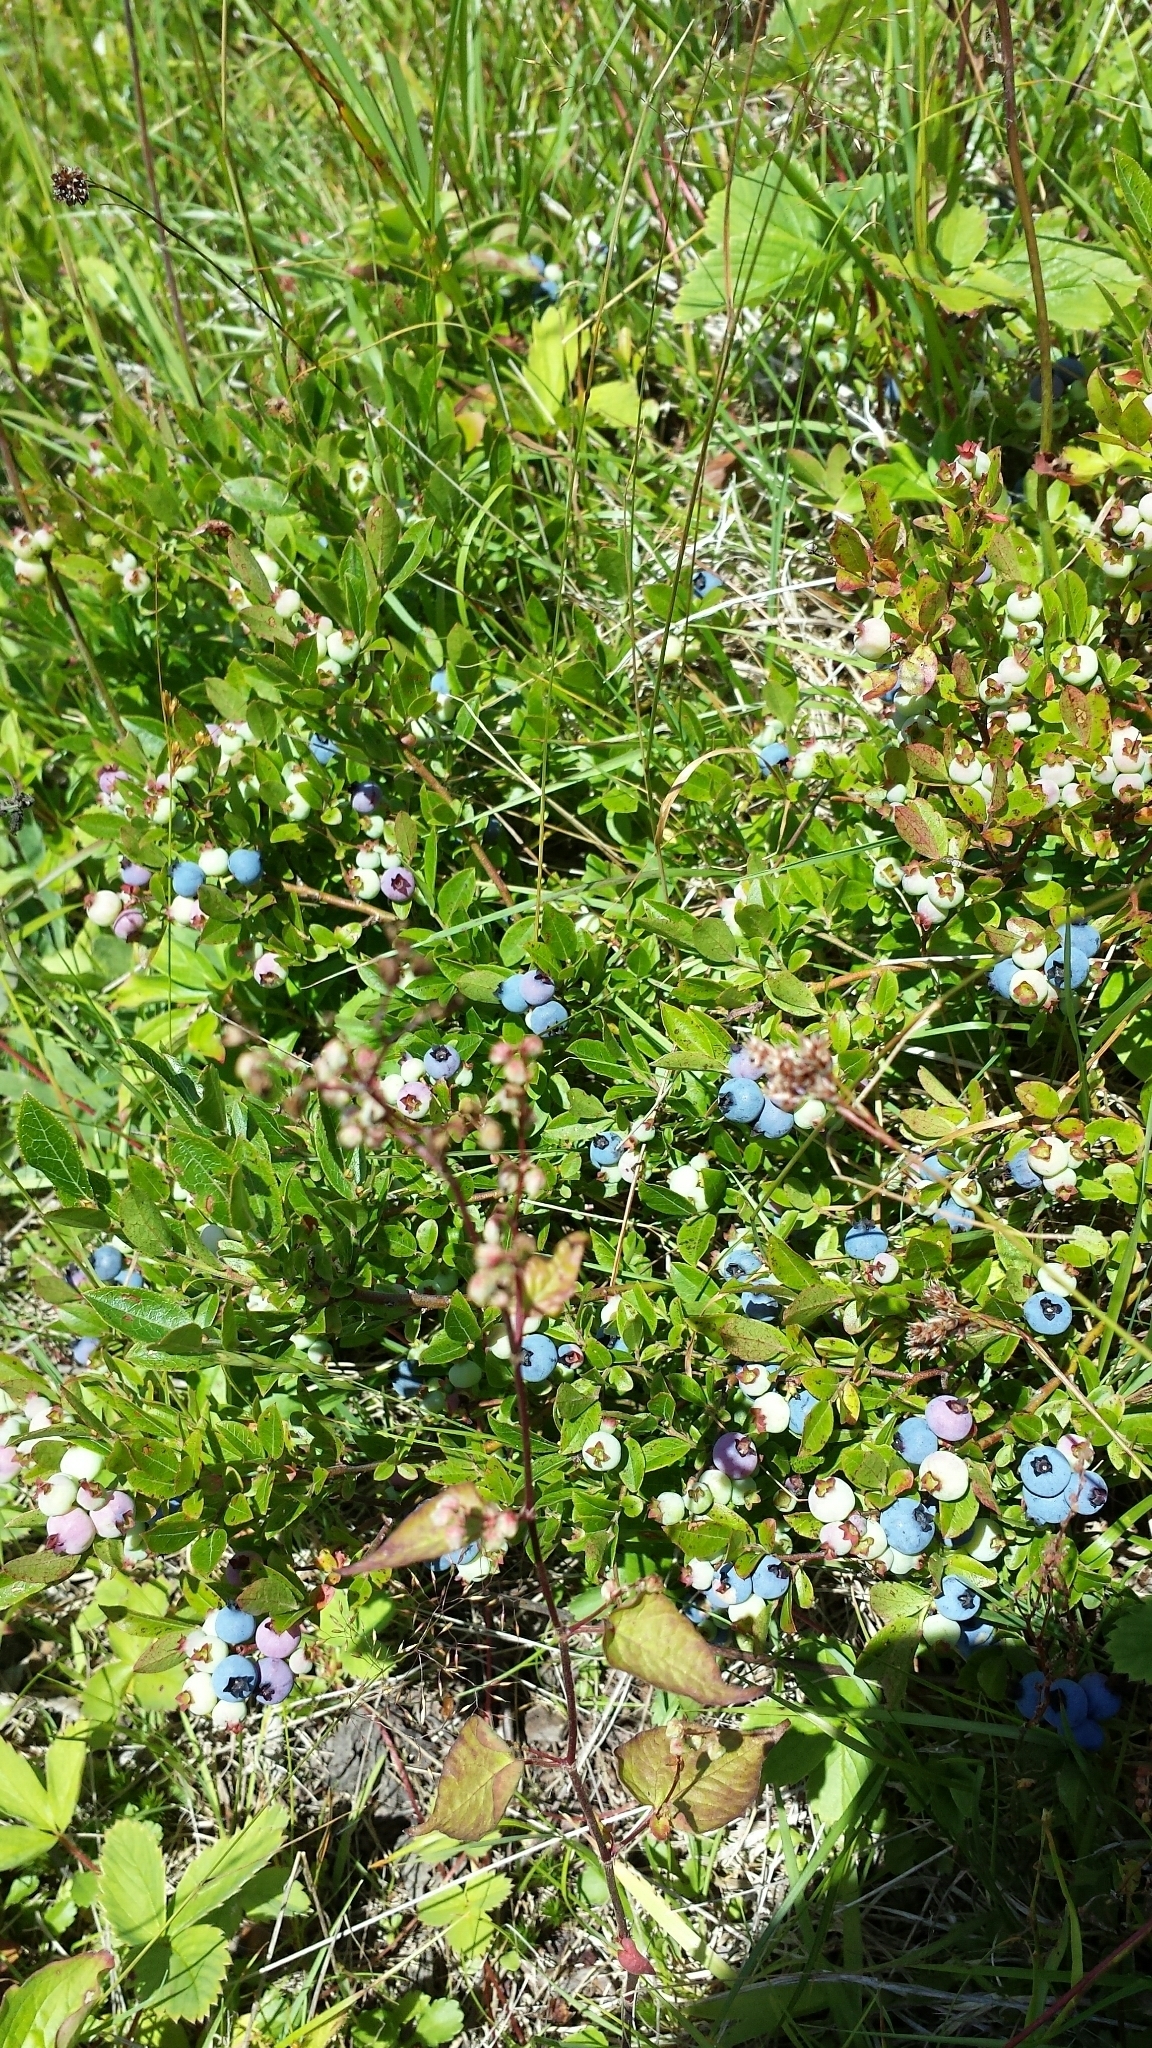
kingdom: Plantae
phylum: Tracheophyta
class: Magnoliopsida
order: Ericales
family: Ericaceae
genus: Vaccinium
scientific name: Vaccinium angustifolium
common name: Early lowbush blueberry
